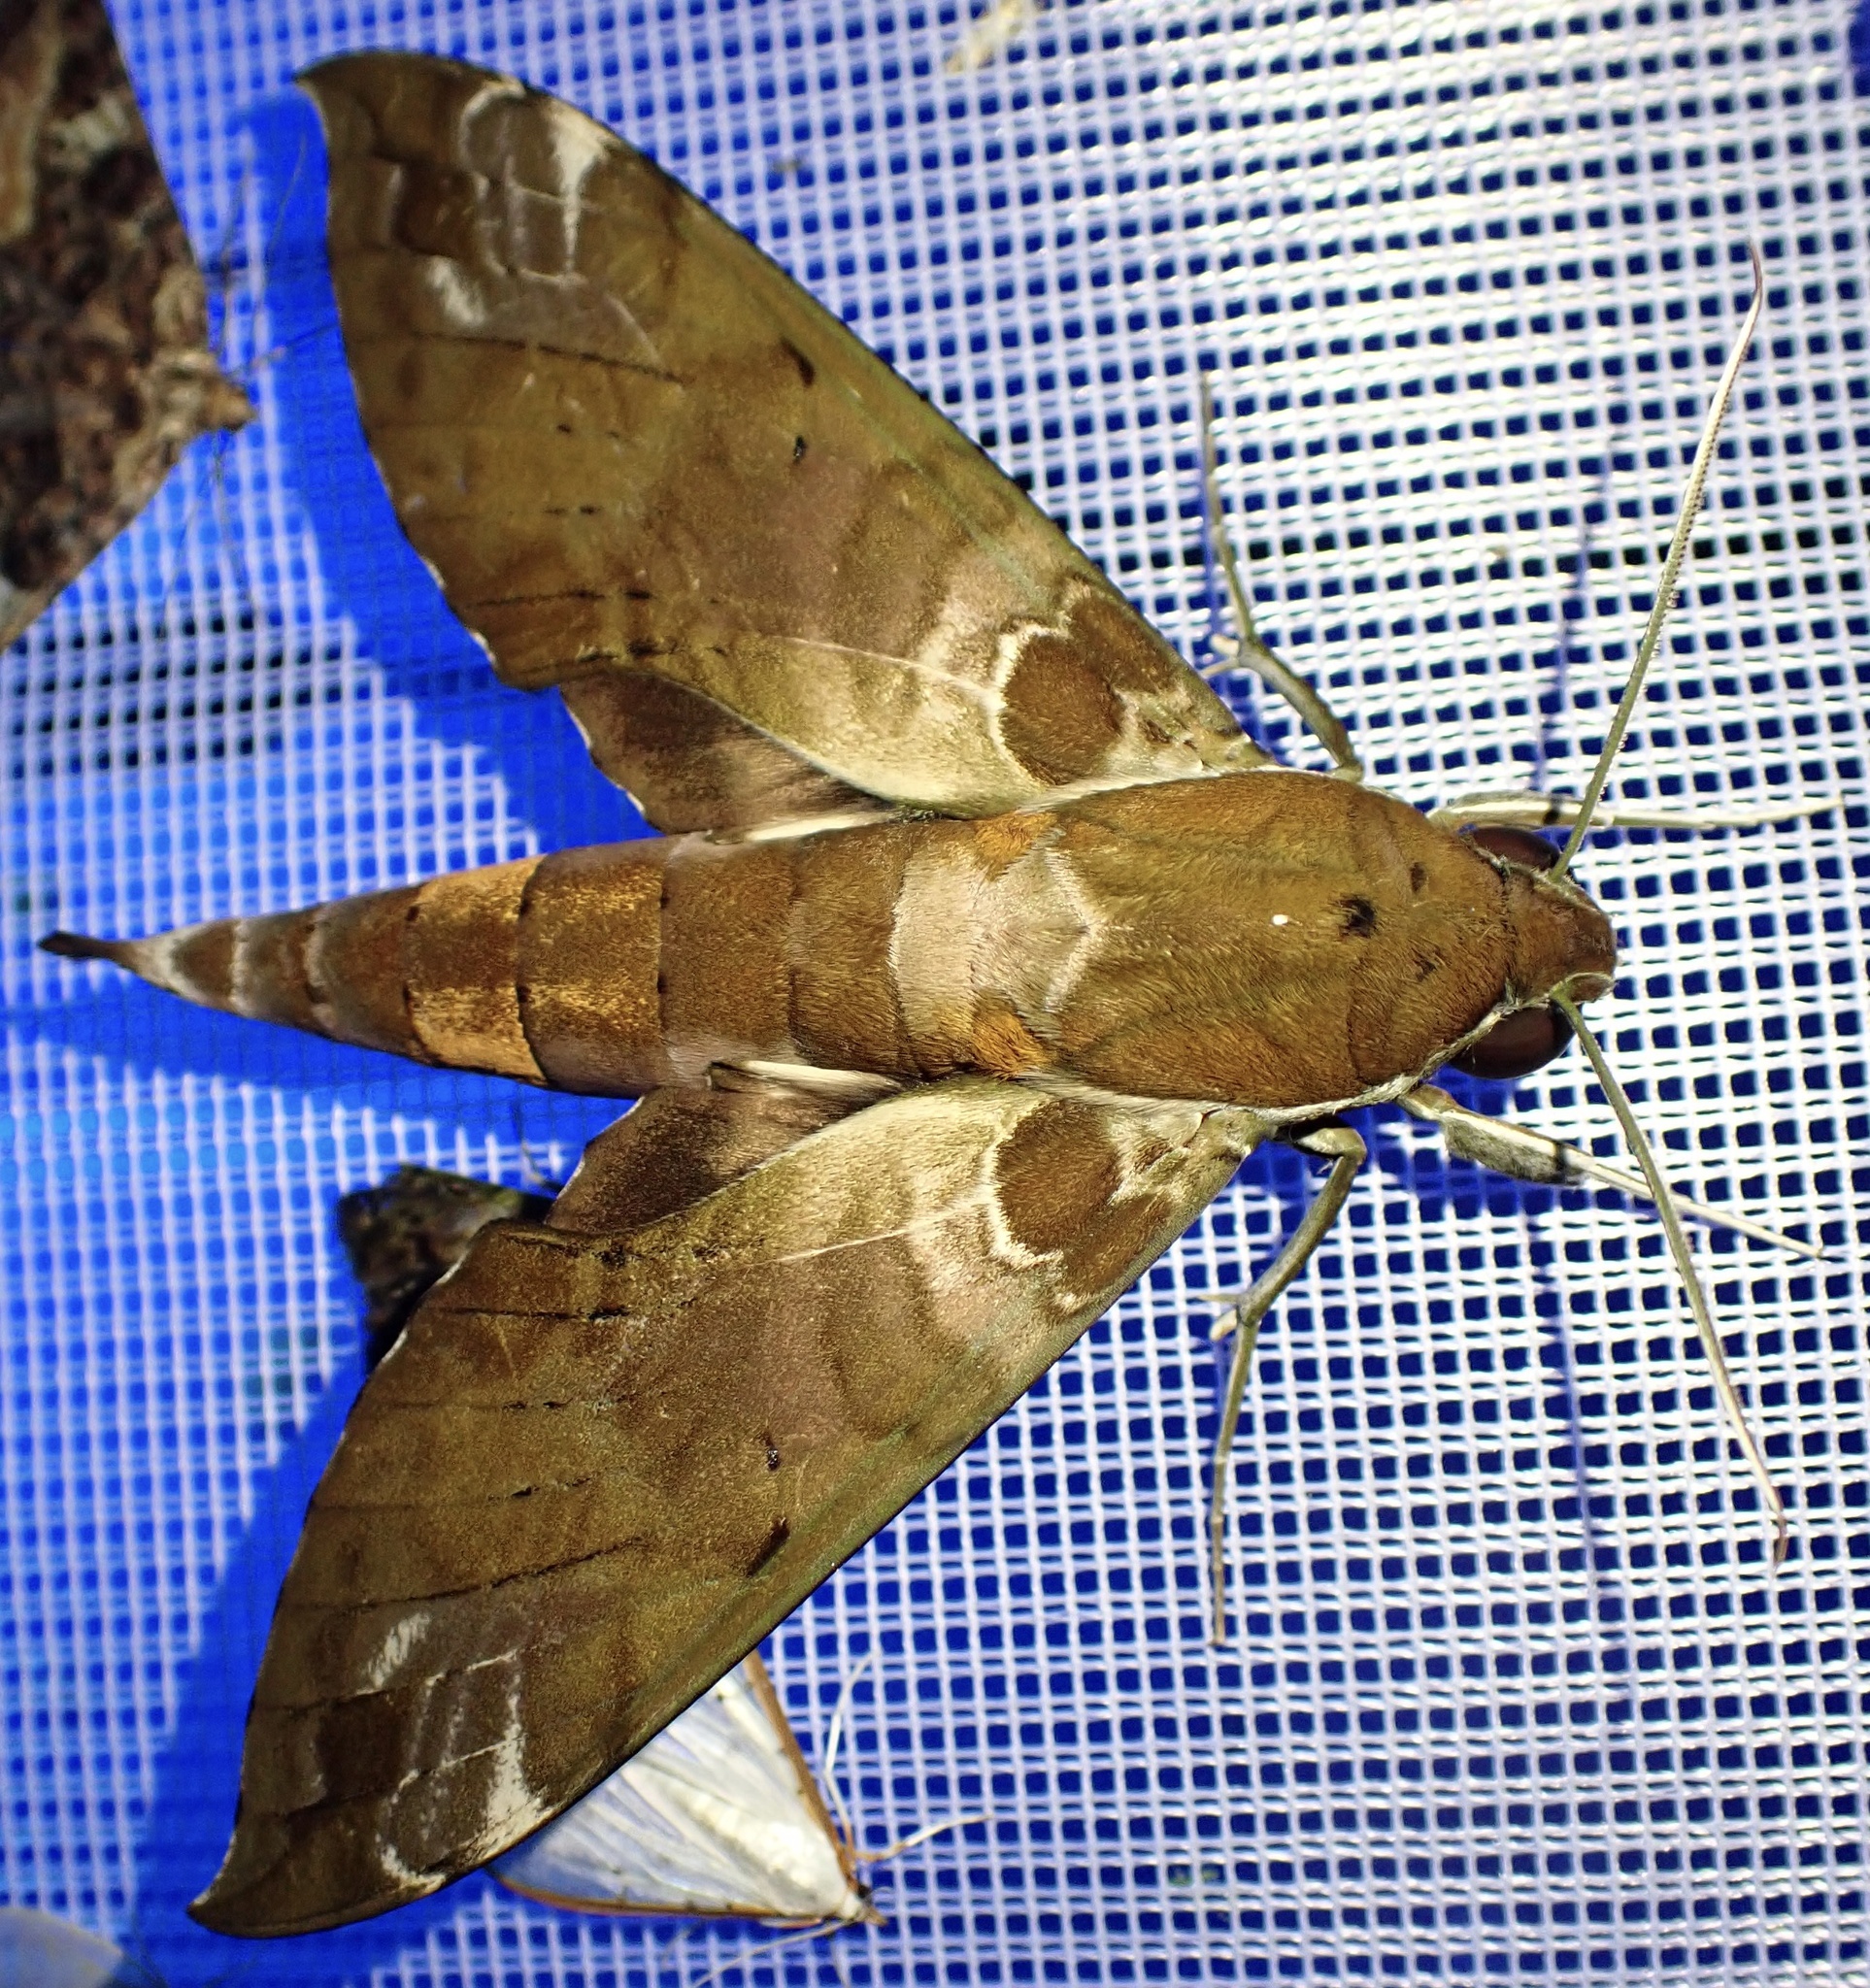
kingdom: Animalia
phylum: Arthropoda
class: Insecta
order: Lepidoptera
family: Sphingidae
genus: Cechenena
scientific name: Cechenena helops
